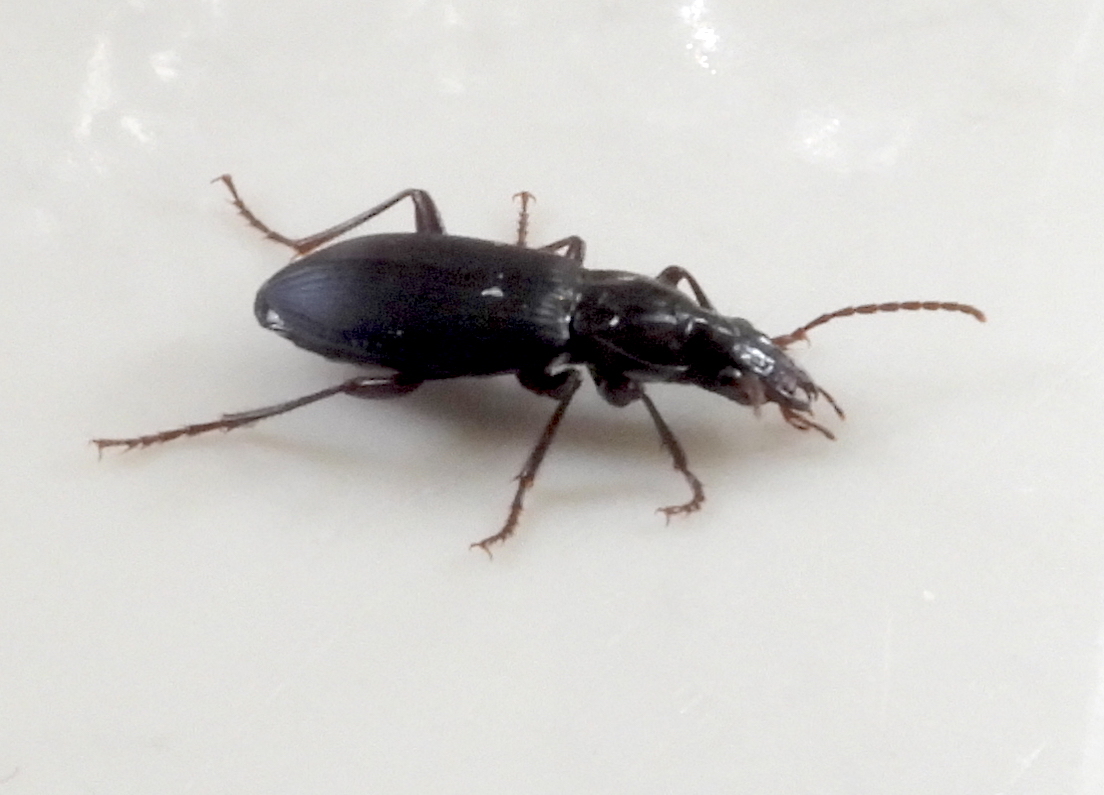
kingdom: Animalia
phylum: Arthropoda
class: Insecta
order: Coleoptera
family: Carabidae
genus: Laemostenus
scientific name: Laemostenus complanatus
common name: Cosmopolitan ground beetle
